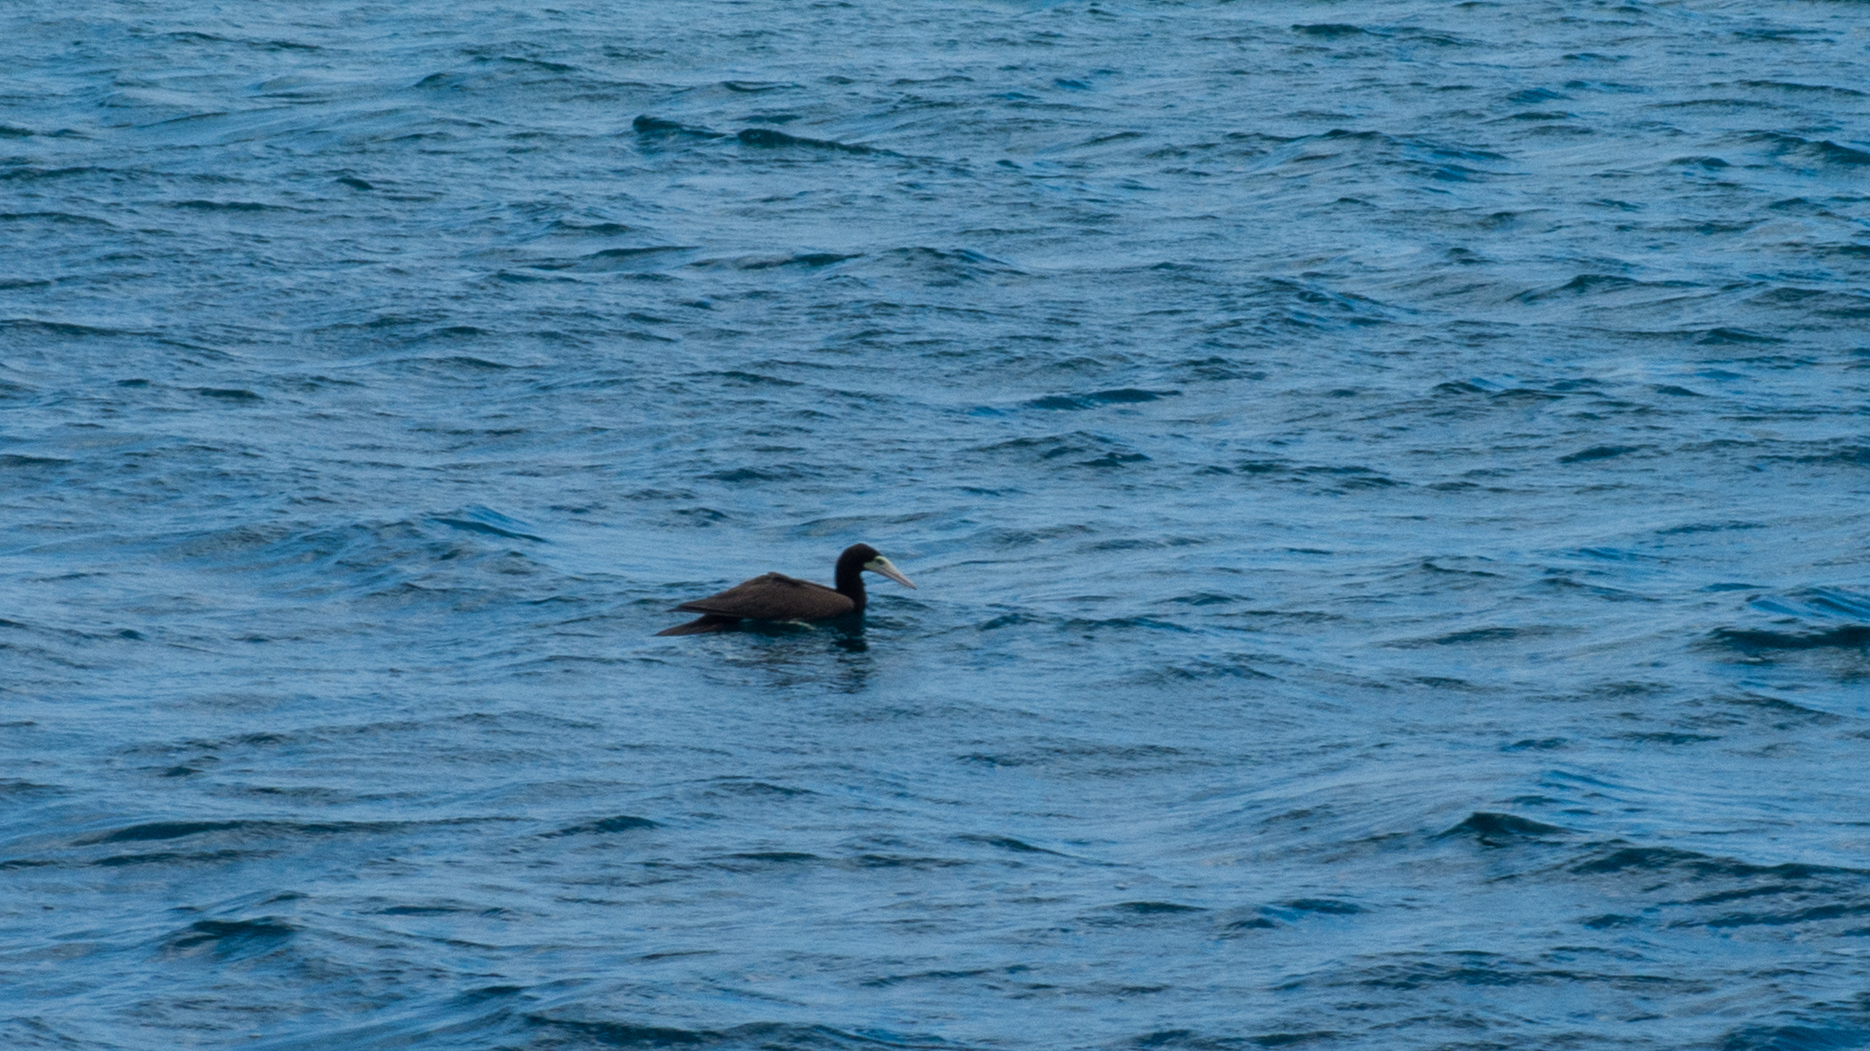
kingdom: Animalia
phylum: Chordata
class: Aves
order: Suliformes
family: Sulidae
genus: Sula
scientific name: Sula leucogaster
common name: Brown booby
